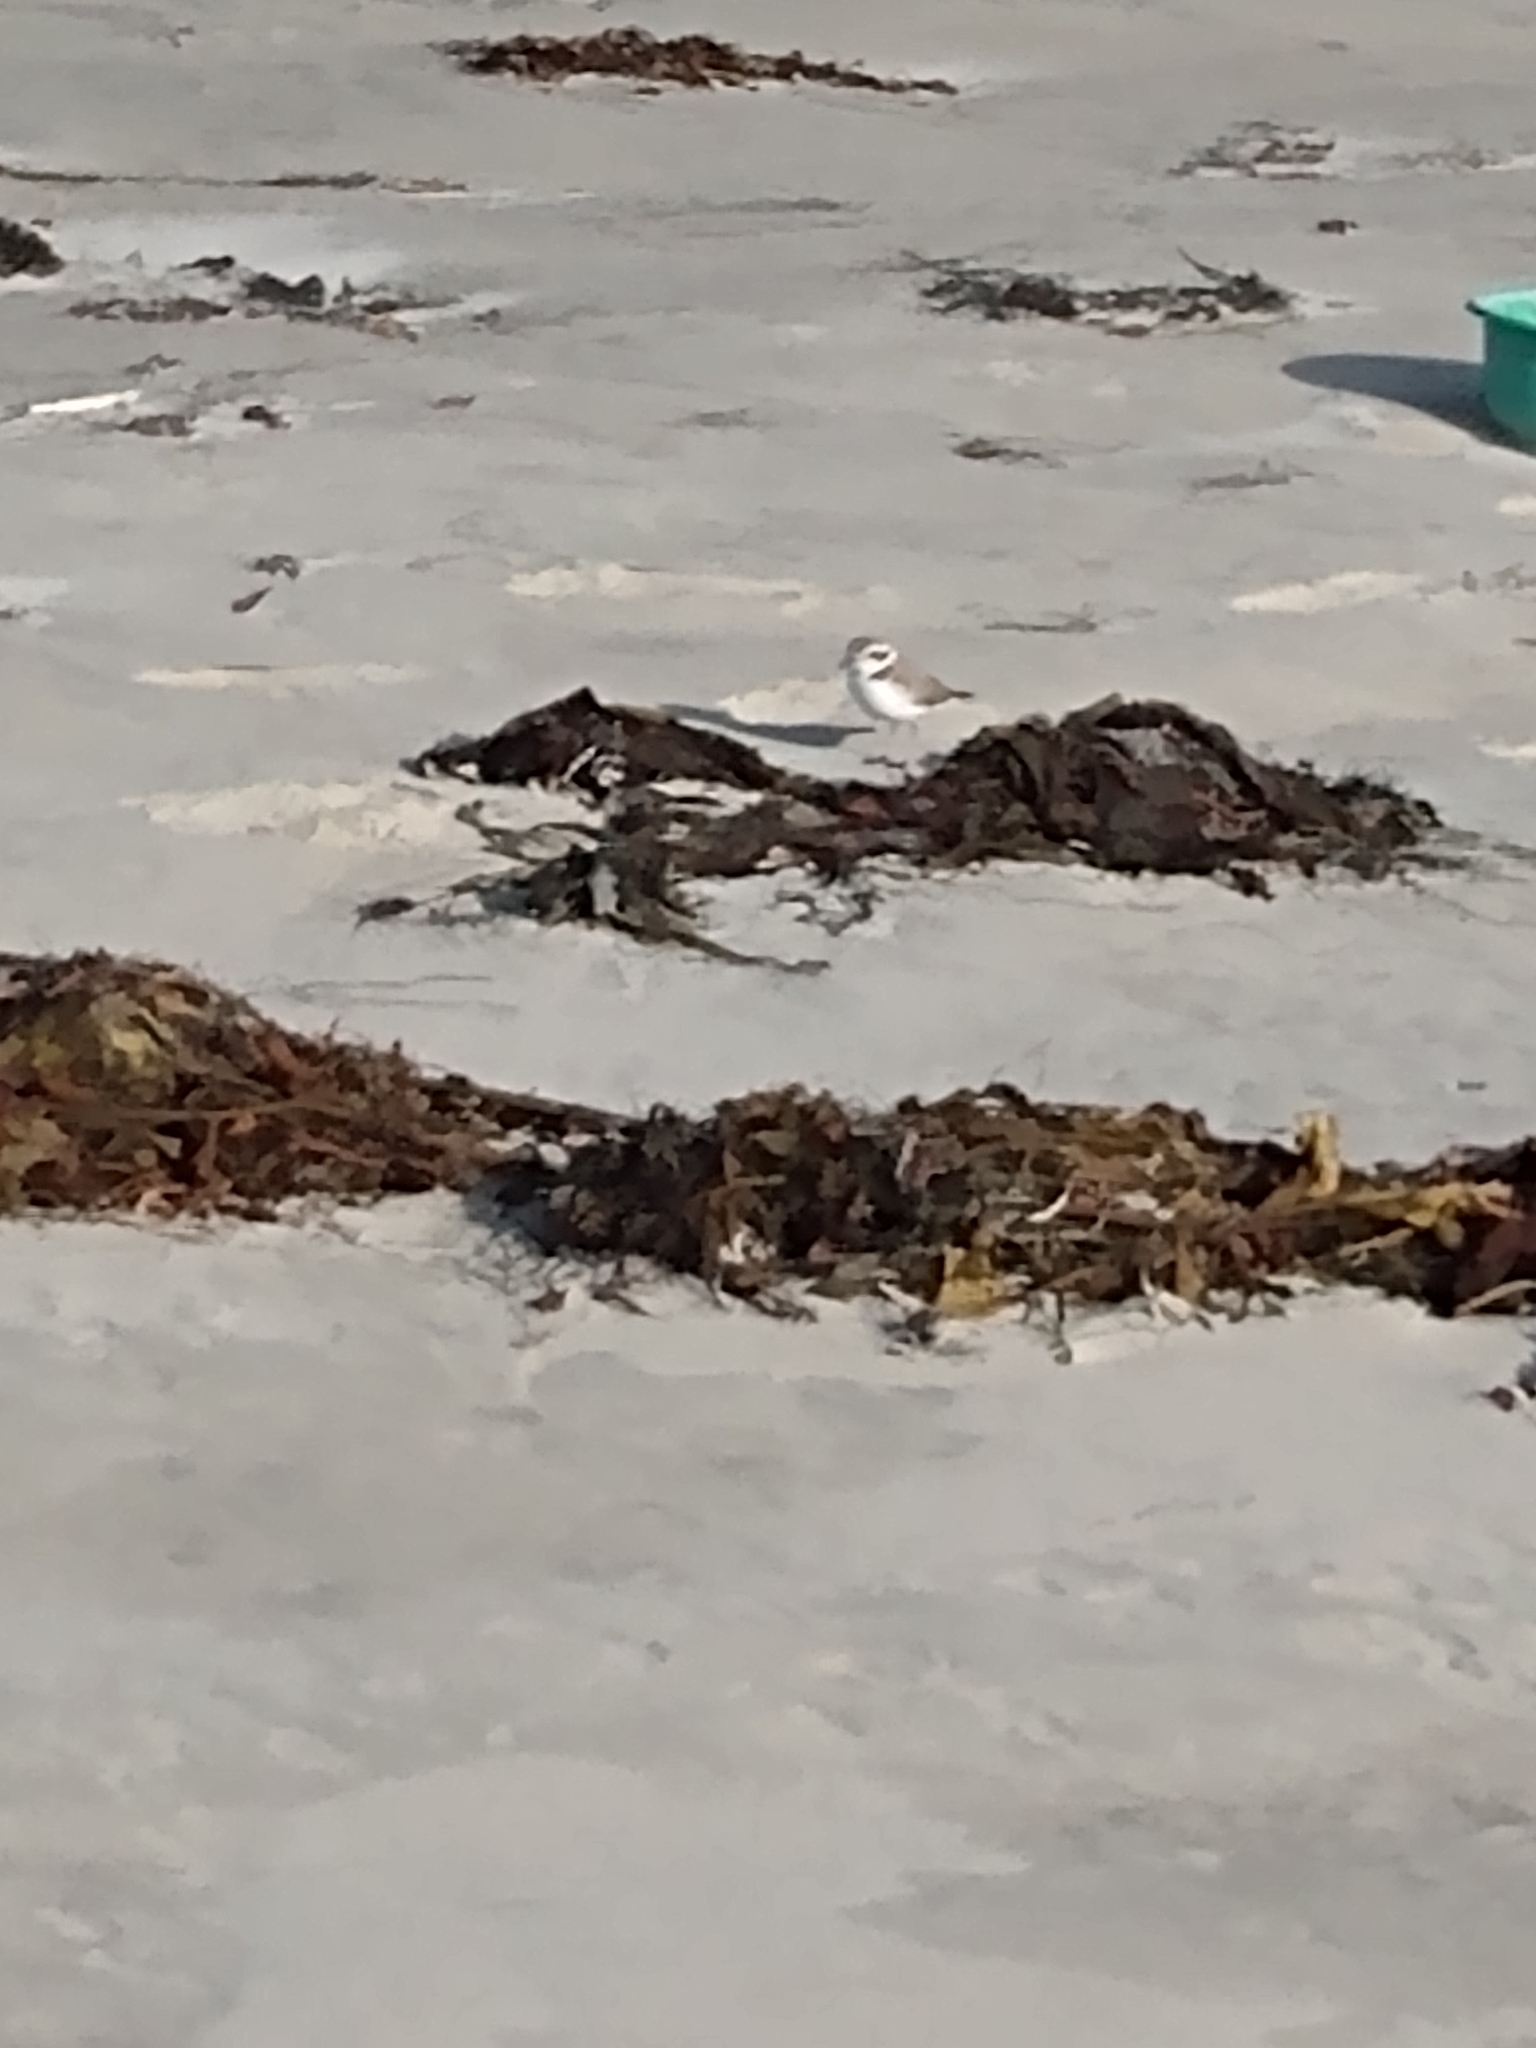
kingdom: Animalia
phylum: Chordata
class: Aves
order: Charadriiformes
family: Charadriidae
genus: Anarhynchus
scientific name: Anarhynchus
